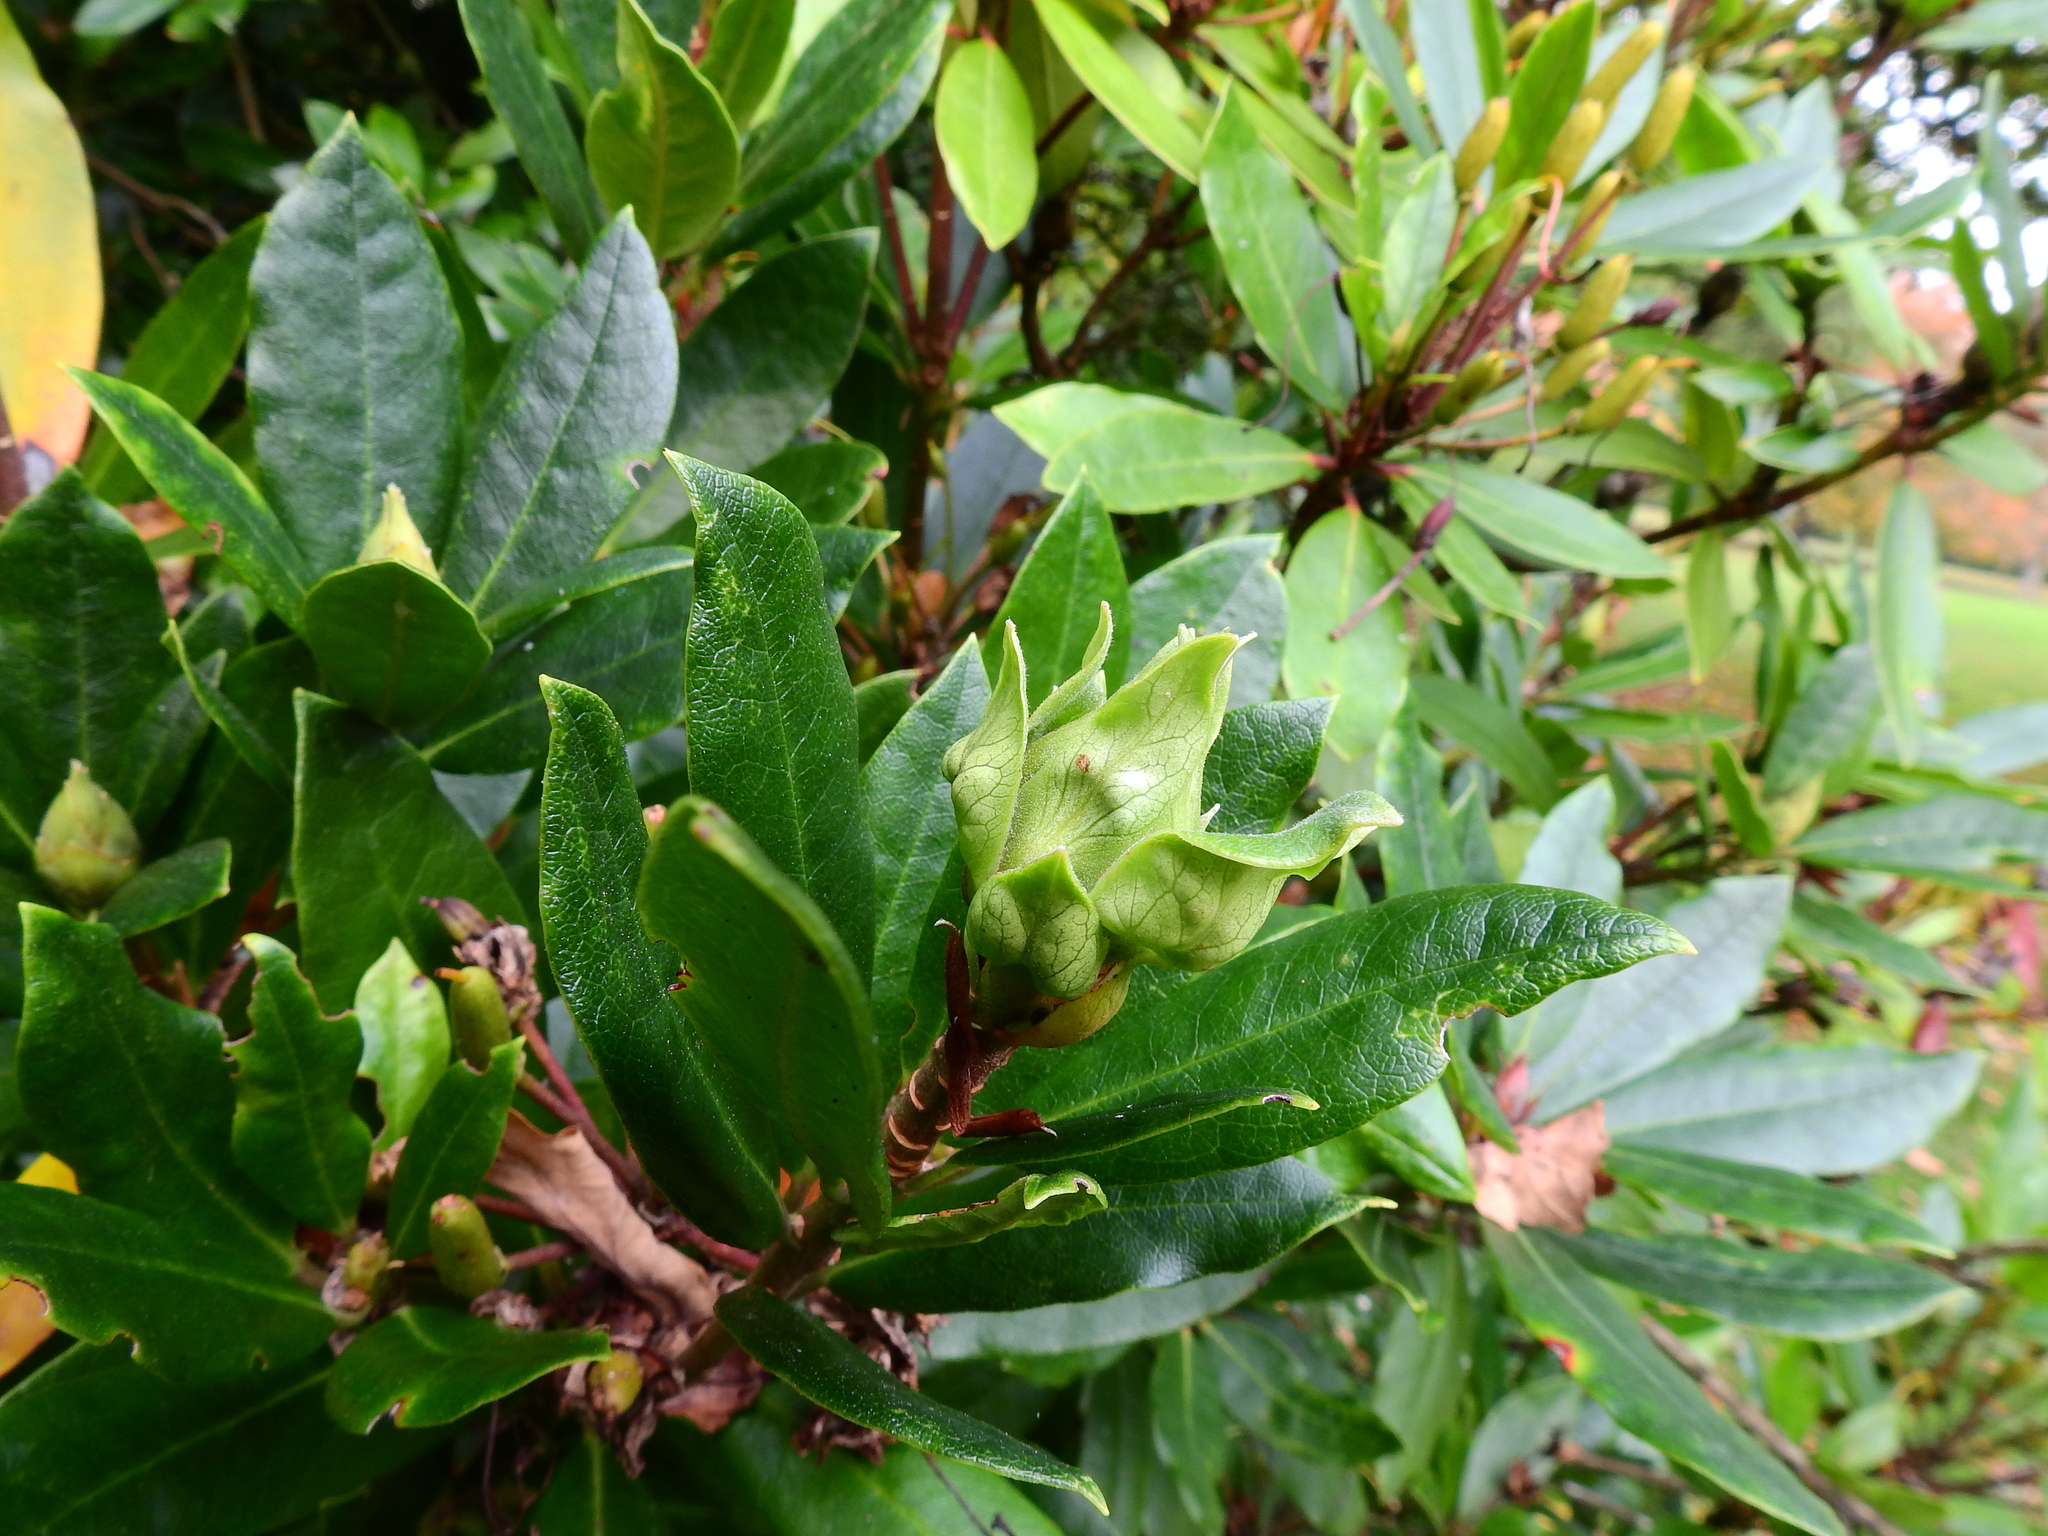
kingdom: Plantae
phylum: Tracheophyta
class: Magnoliopsida
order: Ericales
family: Ericaceae
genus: Rhododendron
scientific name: Rhododendron ponticum
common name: Rhododendron
